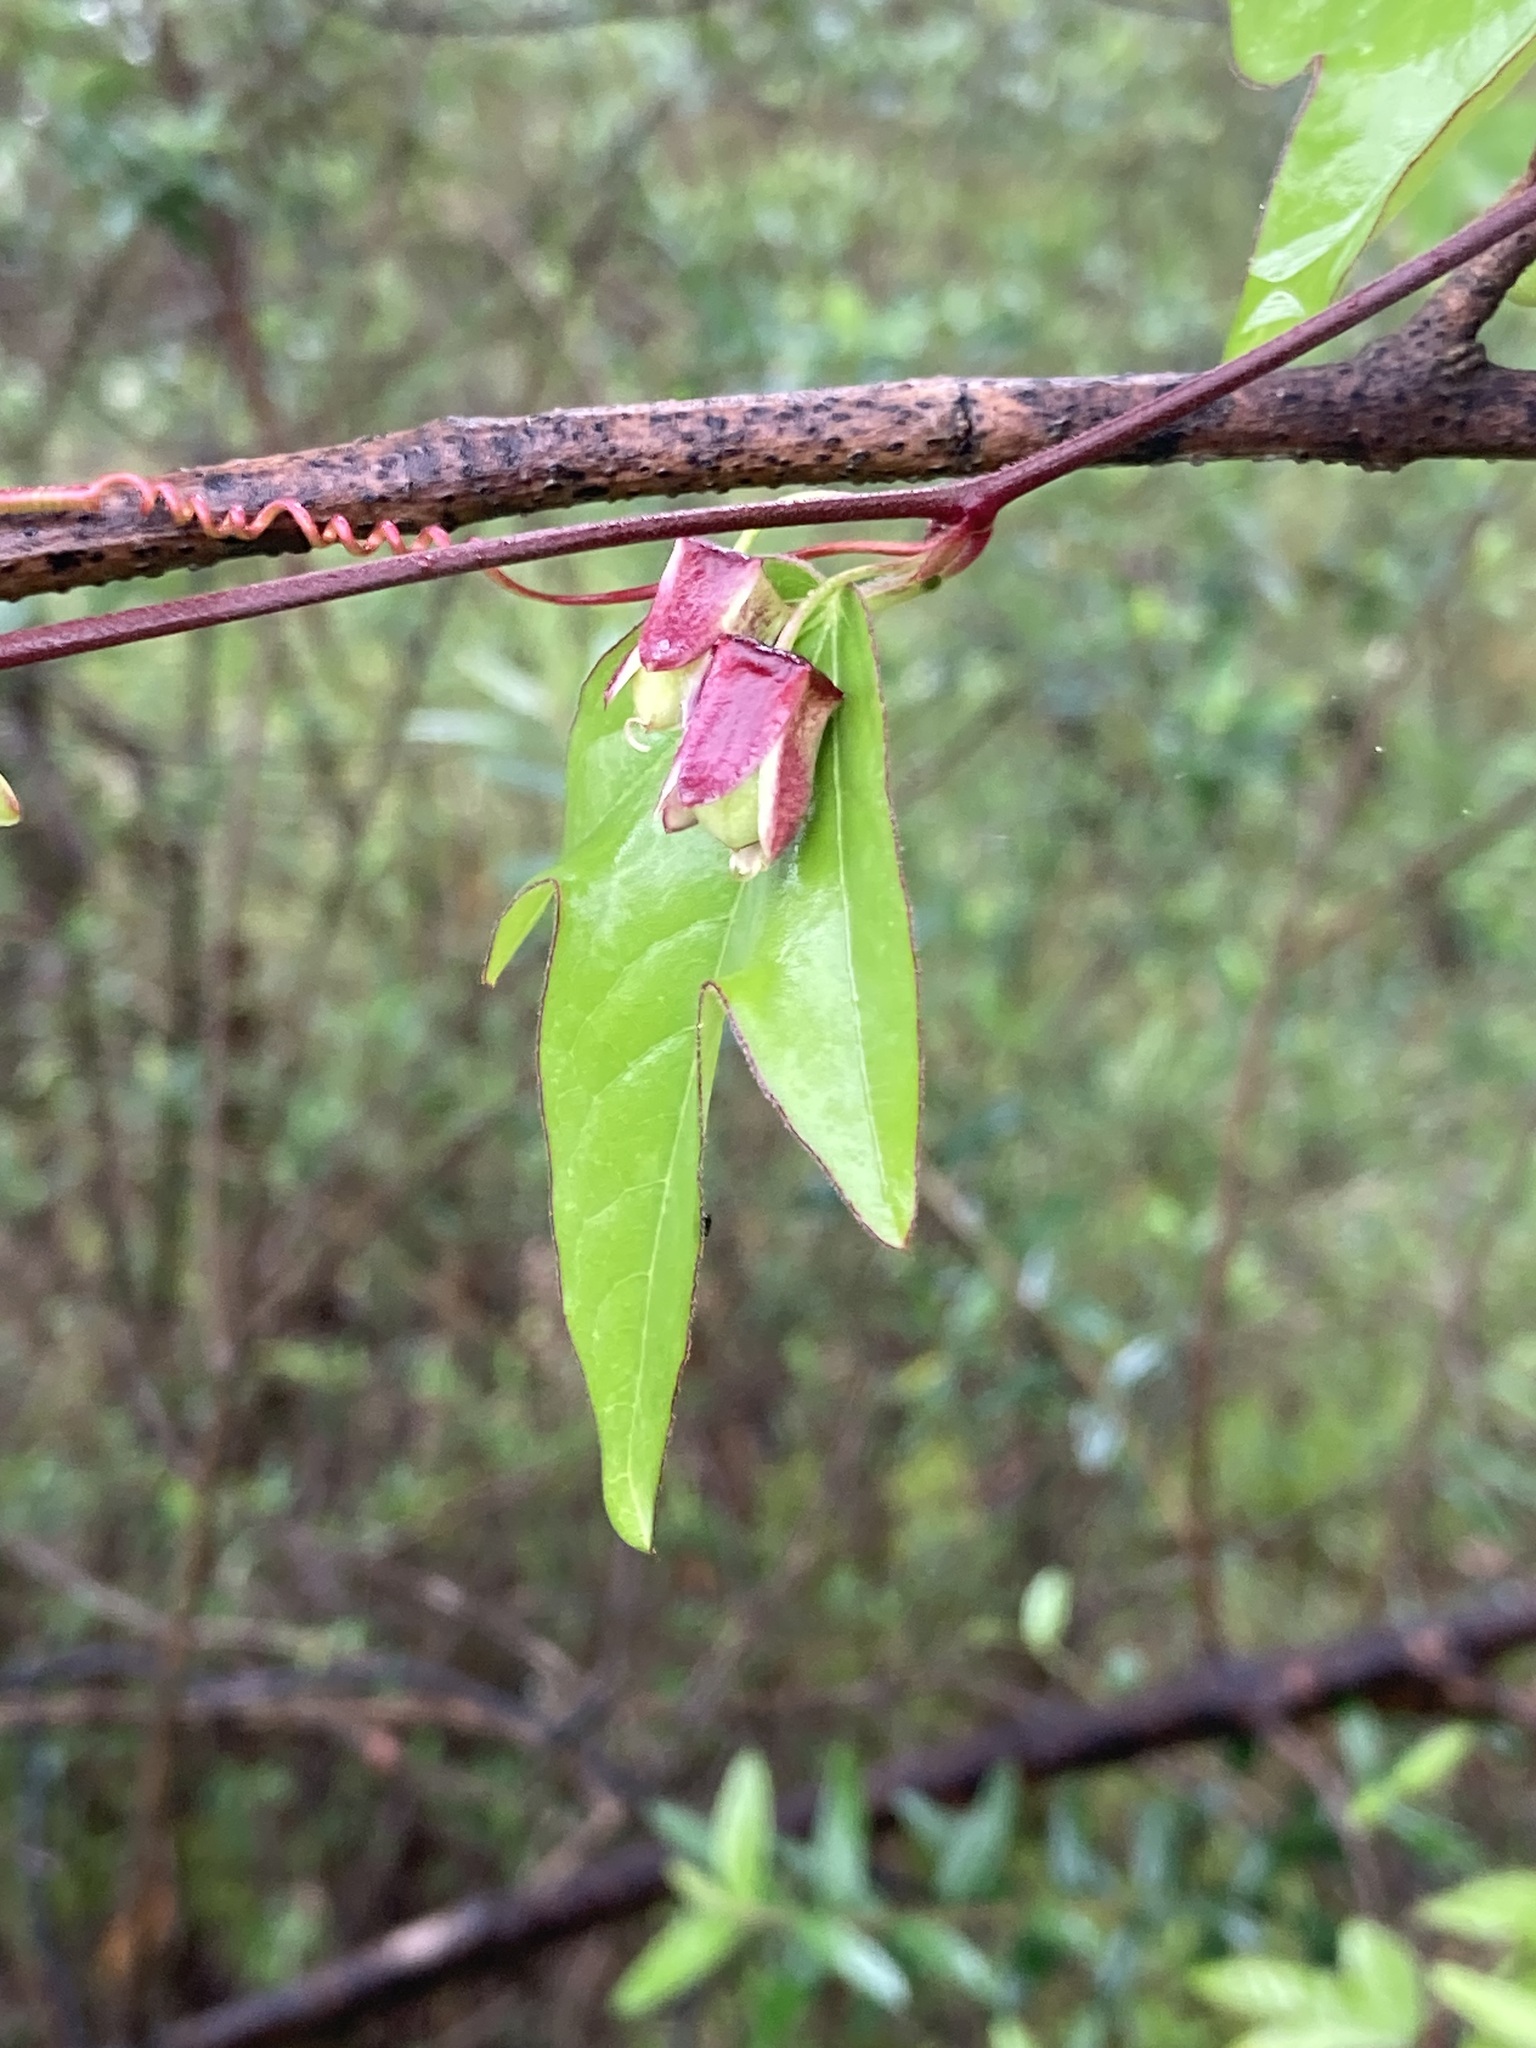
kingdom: Plantae
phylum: Tracheophyta
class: Magnoliopsida
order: Malpighiales
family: Passifloraceae
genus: Passiflora
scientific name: Passiflora suberosa
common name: Wild passionfruit
